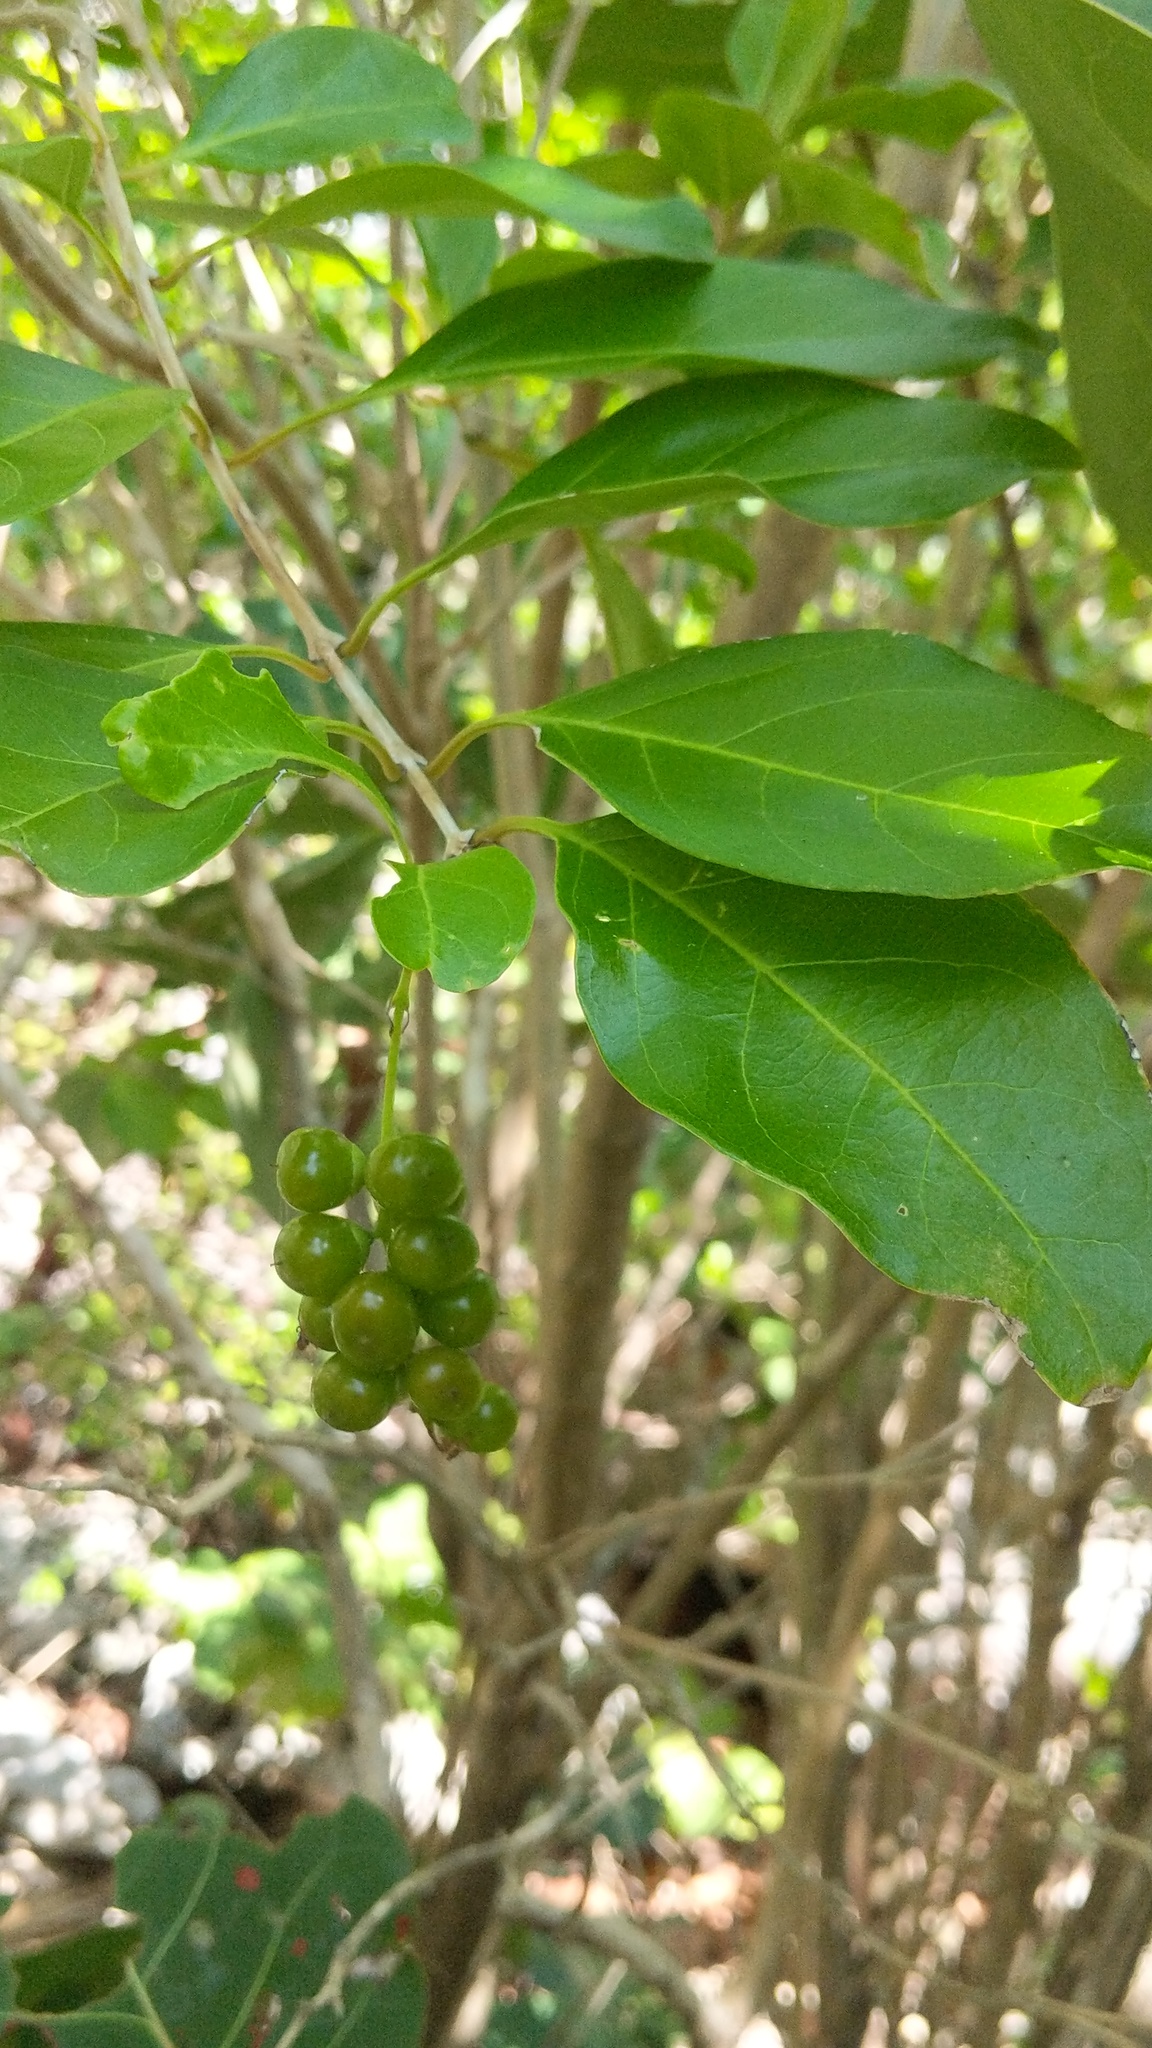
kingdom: Plantae
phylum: Tracheophyta
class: Magnoliopsida
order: Lamiales
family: Verbenaceae
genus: Citharexylum
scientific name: Citharexylum spinosum
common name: Fiddlewood
